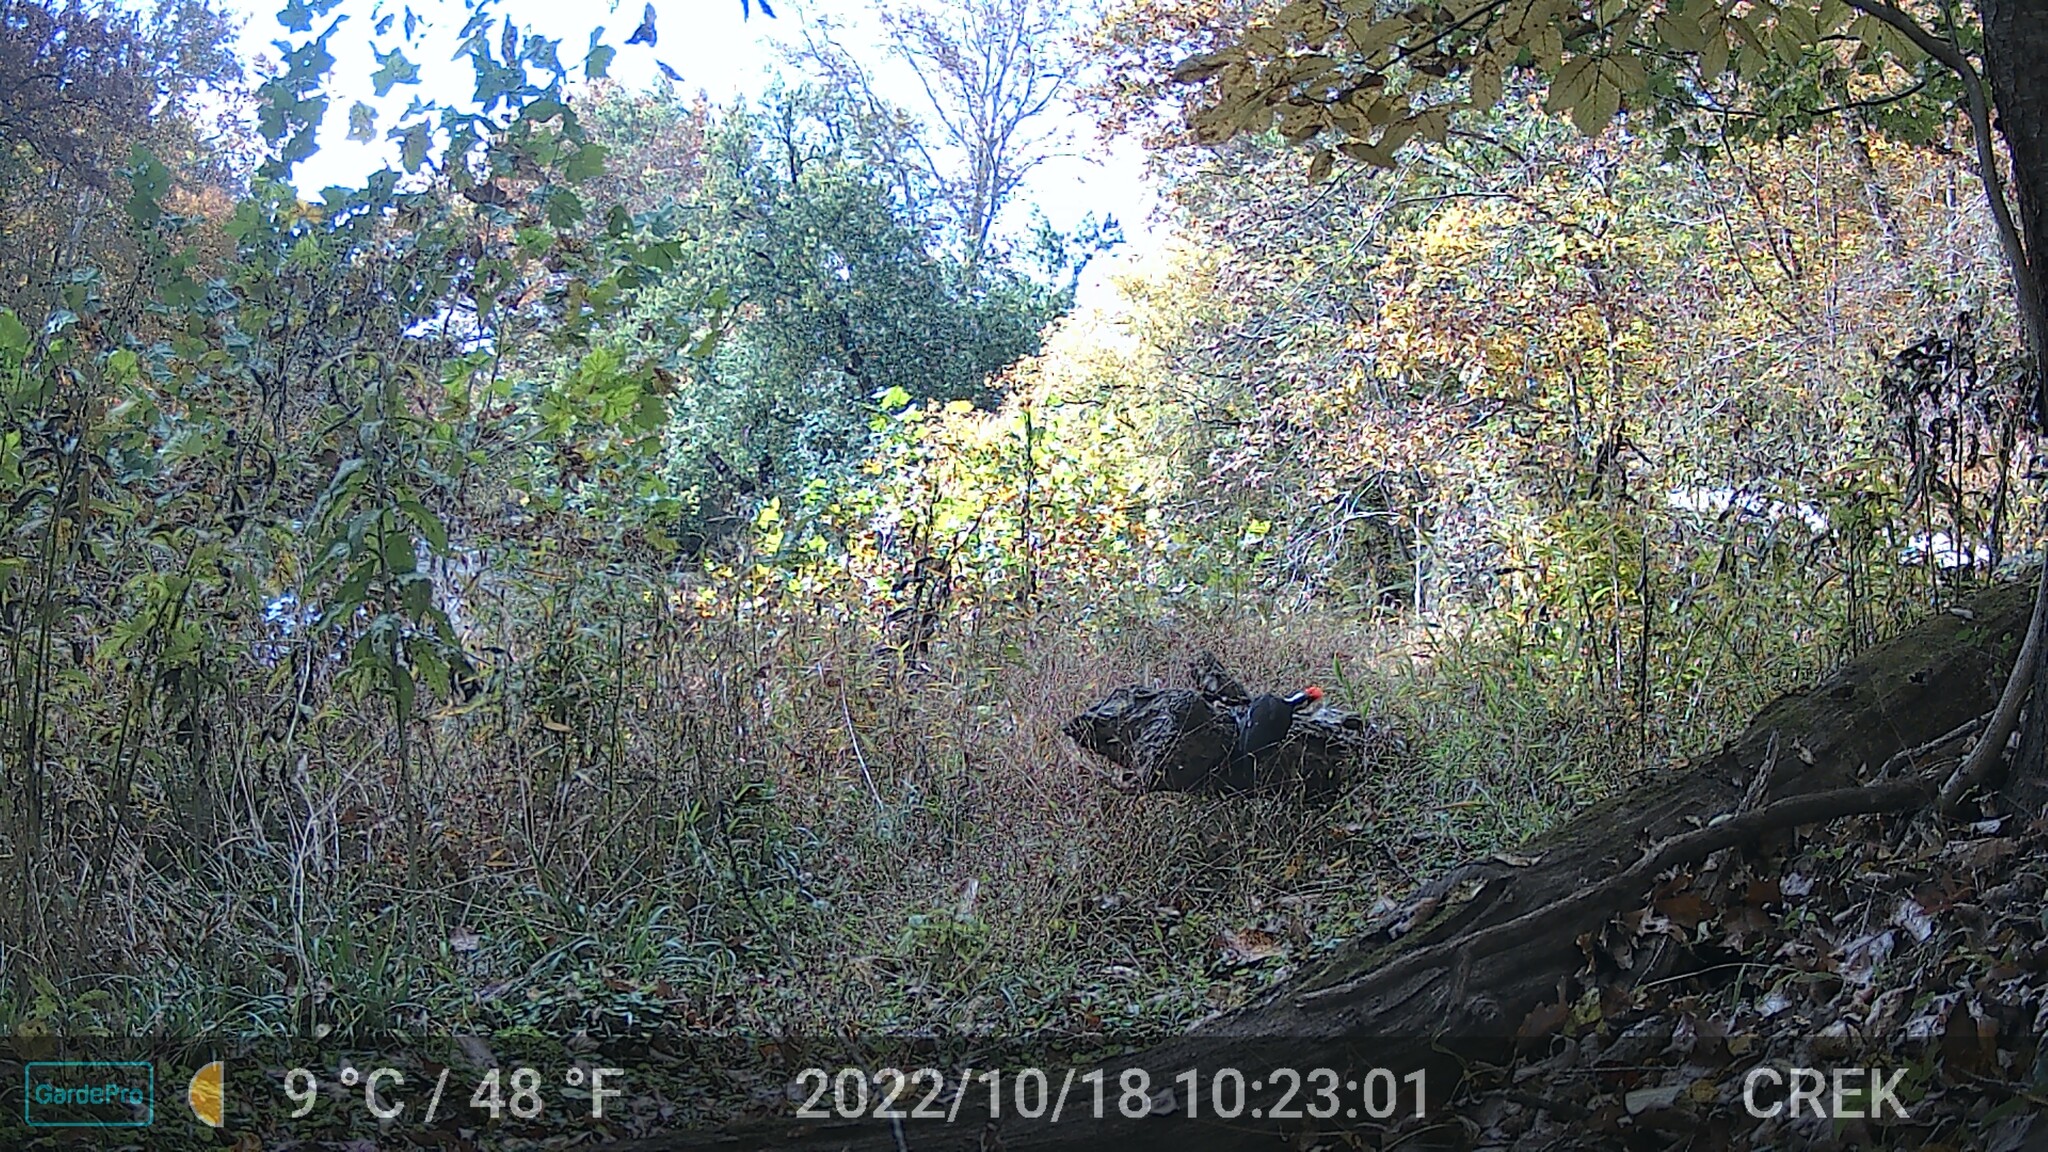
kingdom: Animalia
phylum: Chordata
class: Aves
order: Piciformes
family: Picidae
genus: Dryocopus
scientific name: Dryocopus pileatus
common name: Pileated woodpecker
